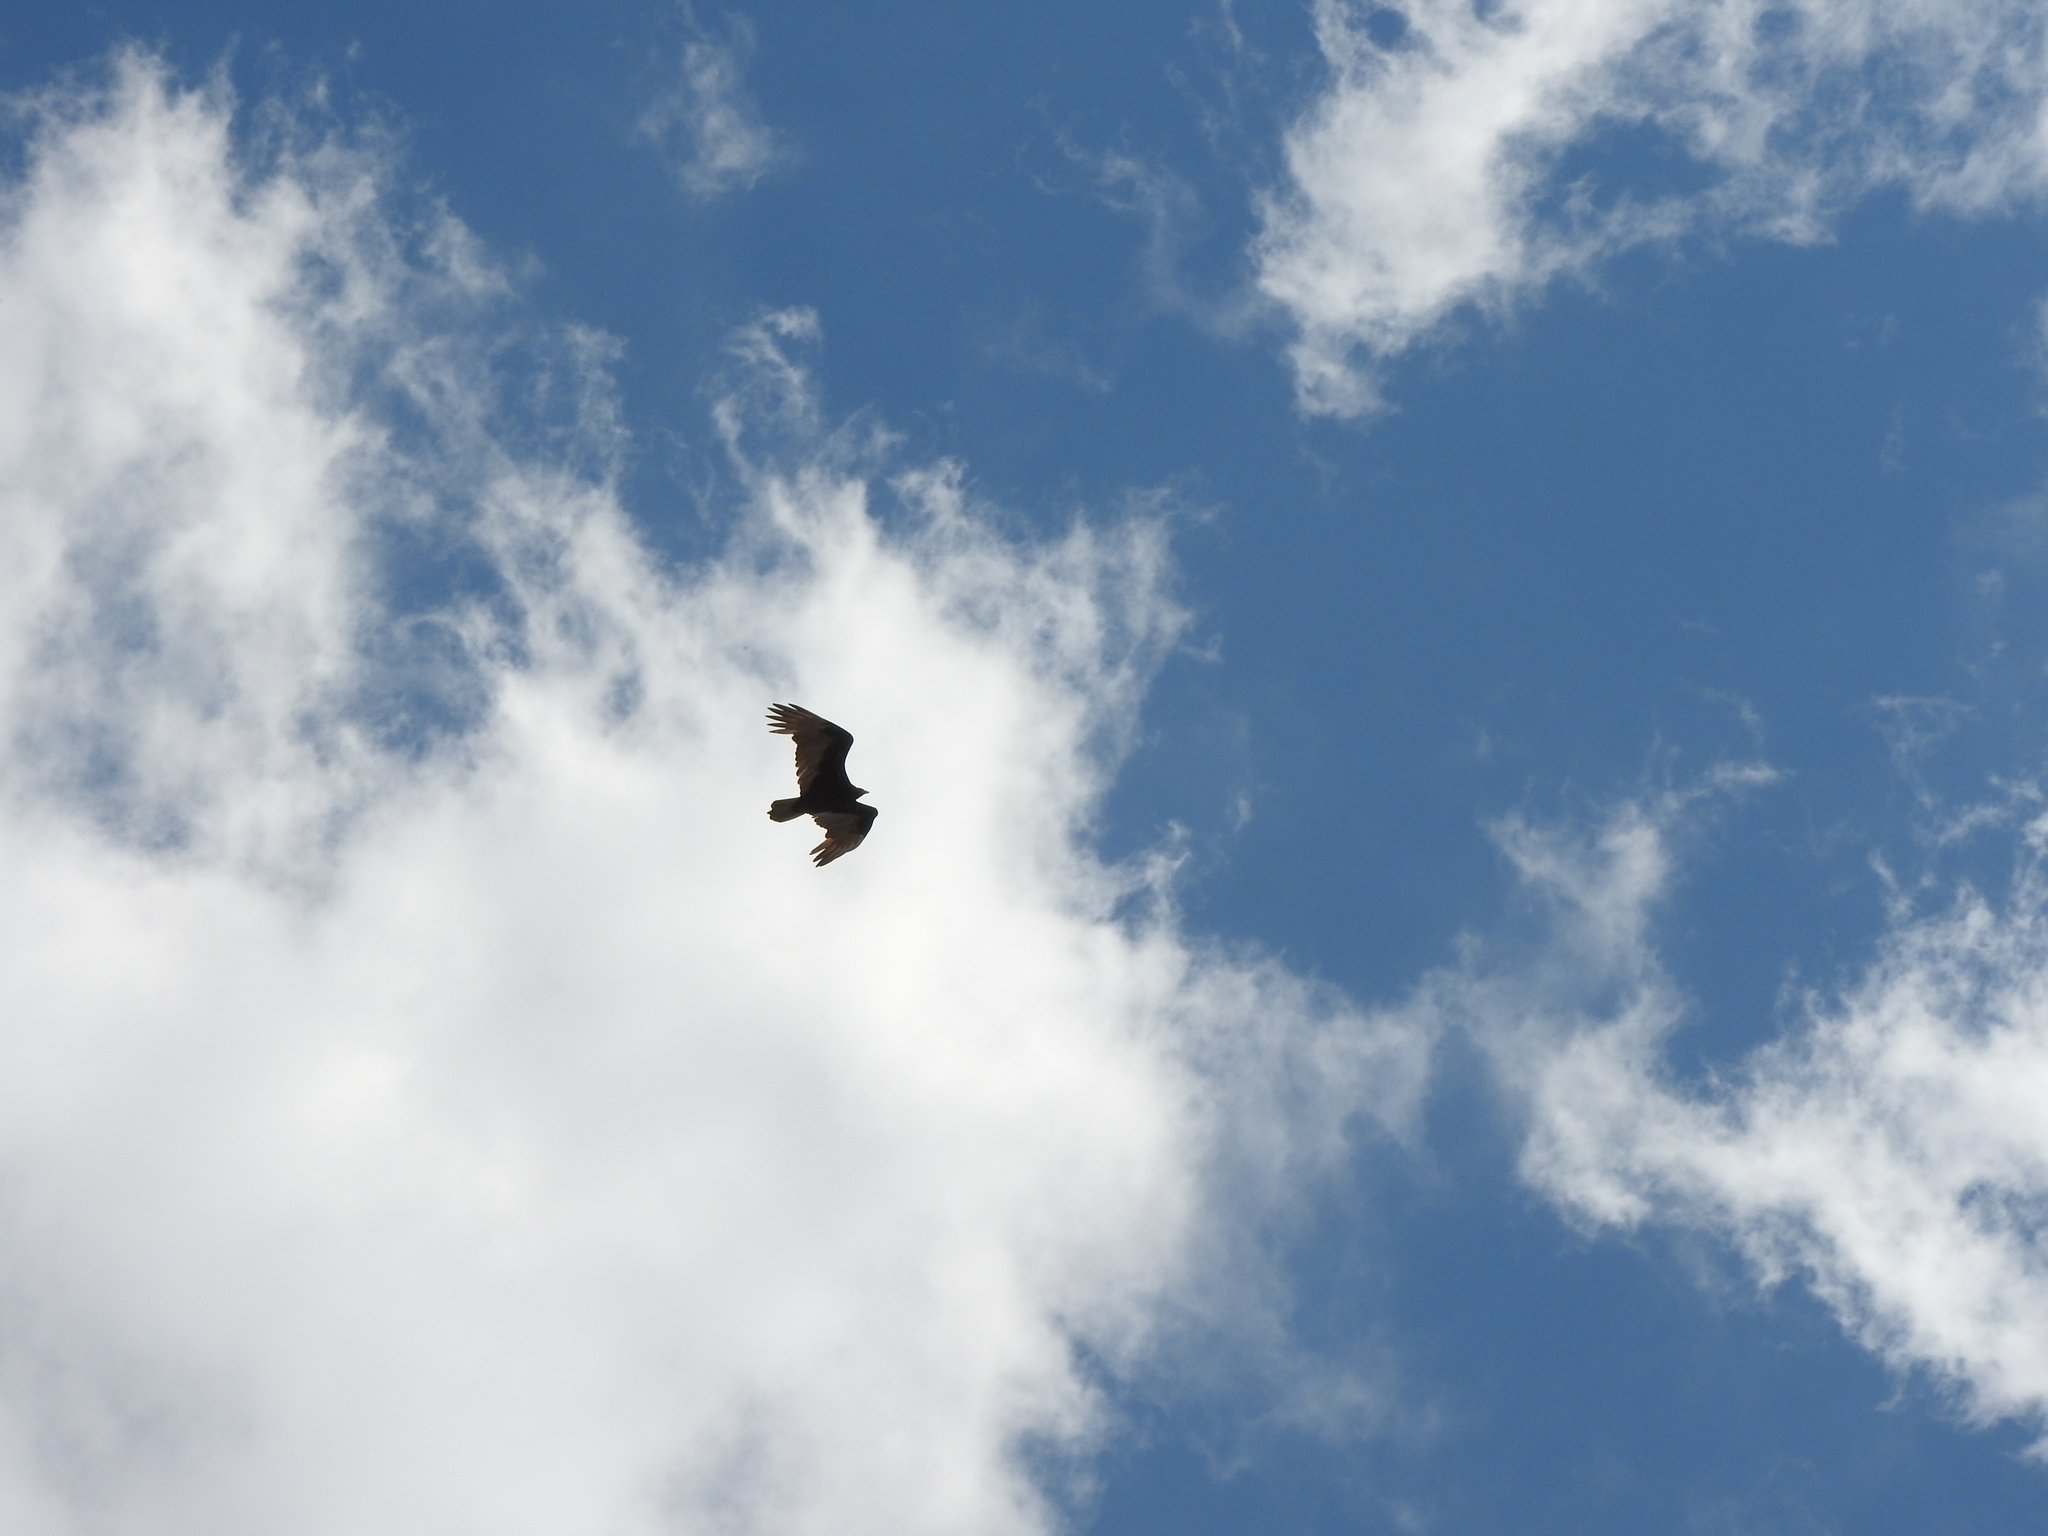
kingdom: Animalia
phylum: Chordata
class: Aves
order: Accipitriformes
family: Cathartidae
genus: Cathartes
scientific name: Cathartes aura
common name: Turkey vulture
